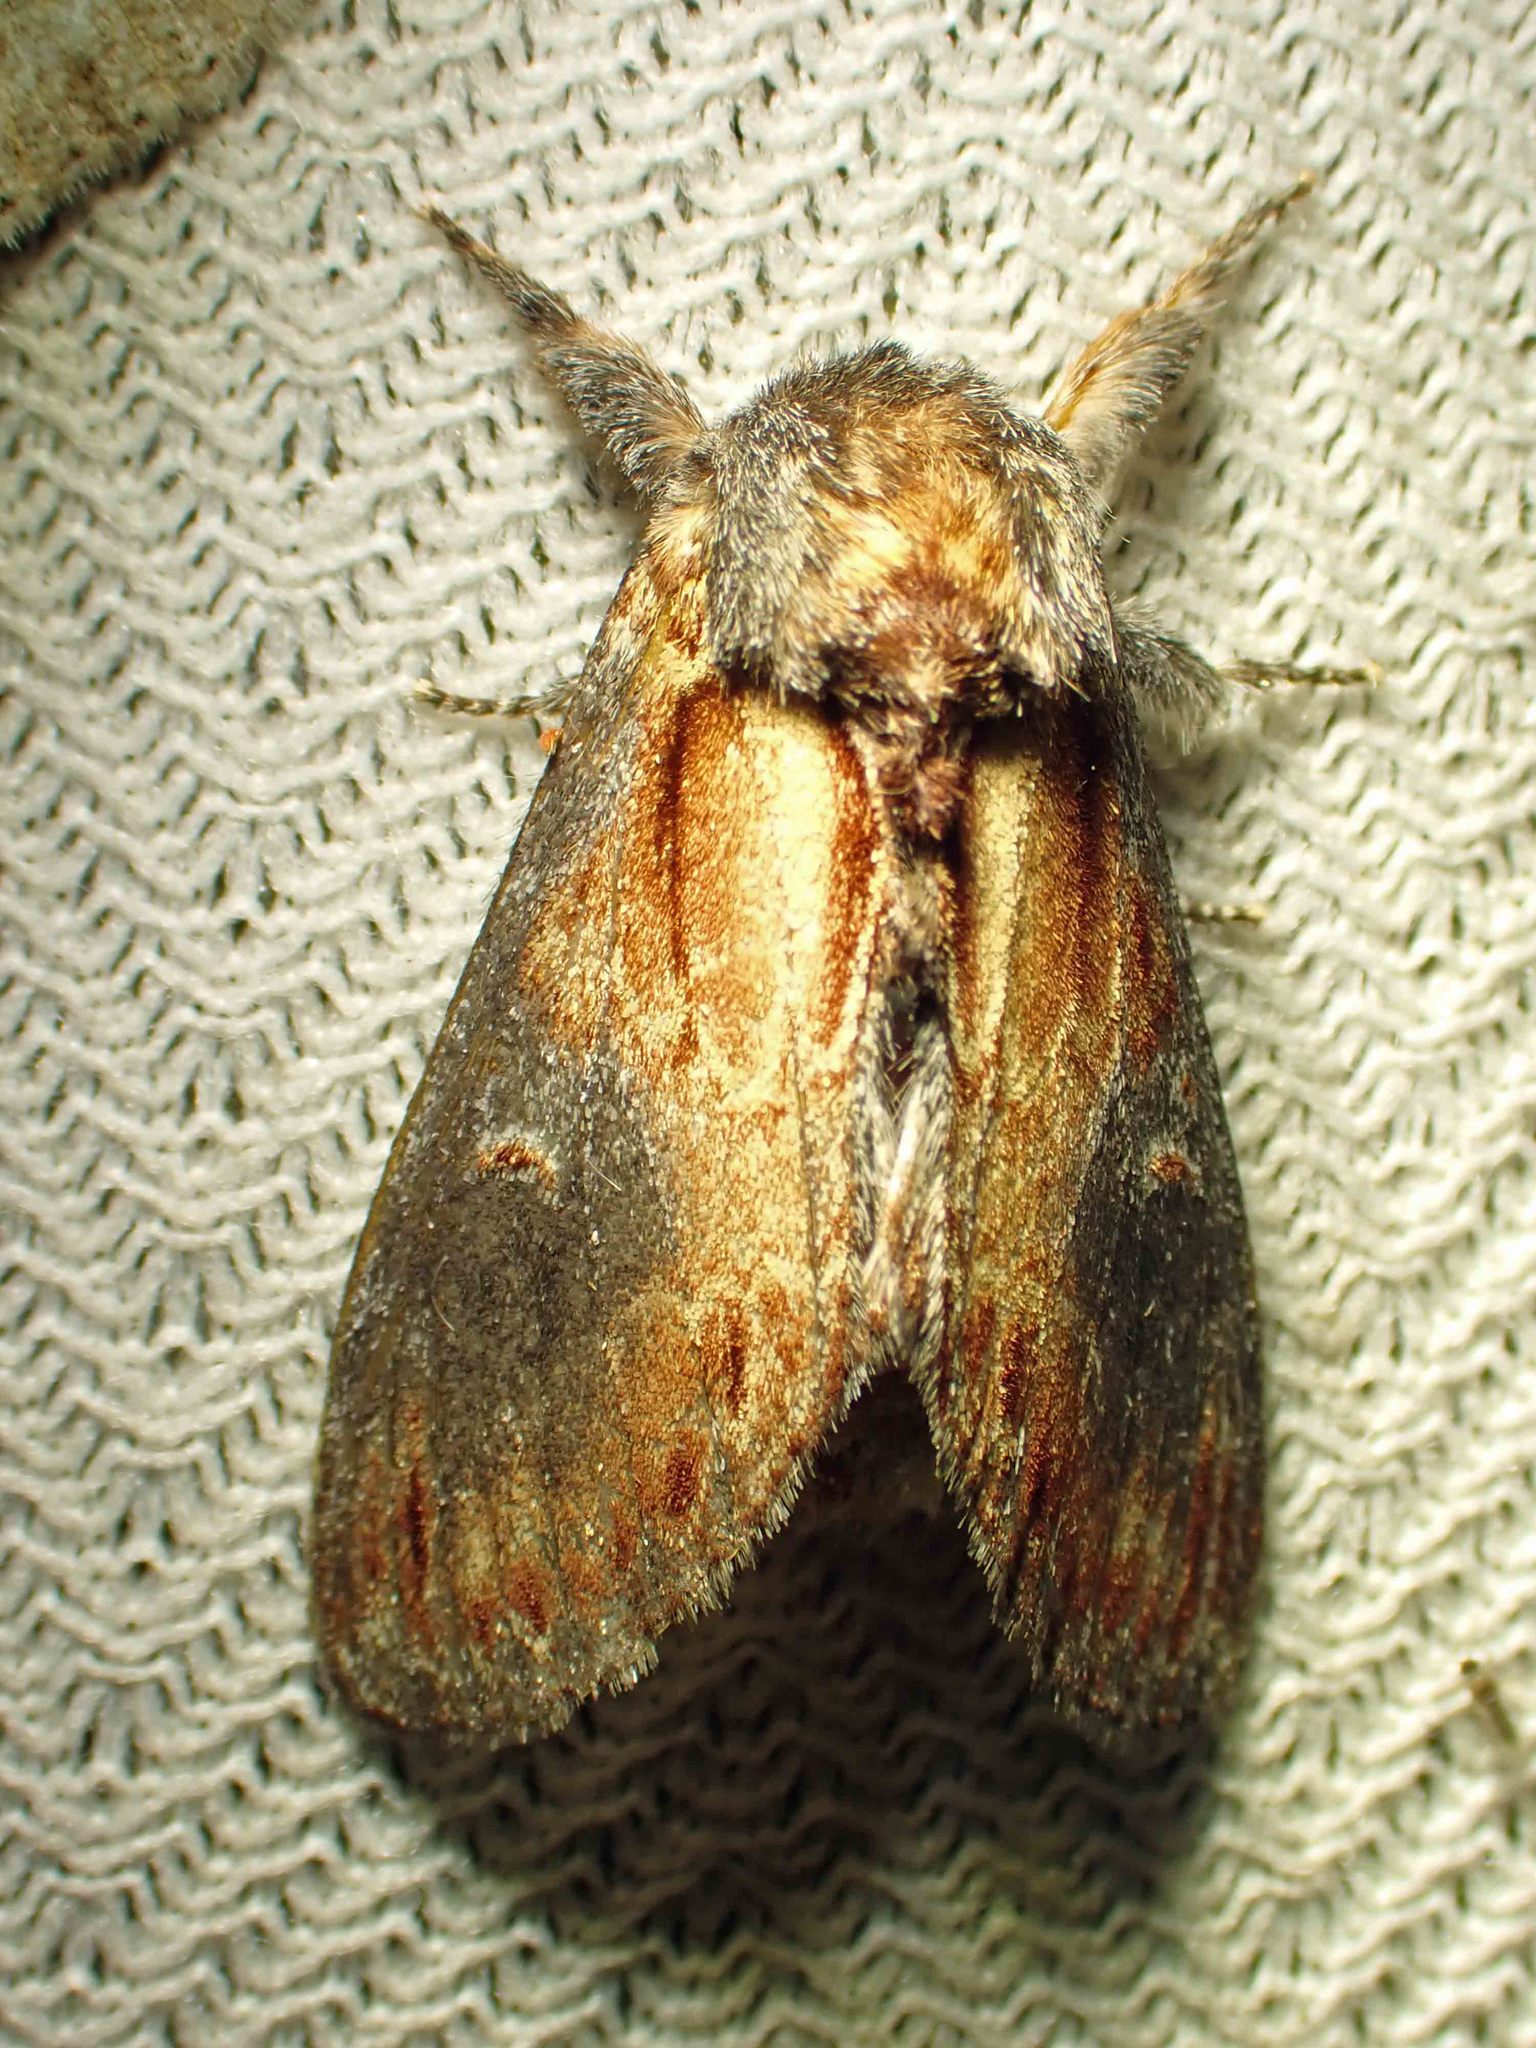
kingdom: Animalia
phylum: Arthropoda
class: Insecta
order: Lepidoptera
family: Notodontidae
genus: Notodonta
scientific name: Notodonta scitipennis
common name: Finned-willow prominent moth
